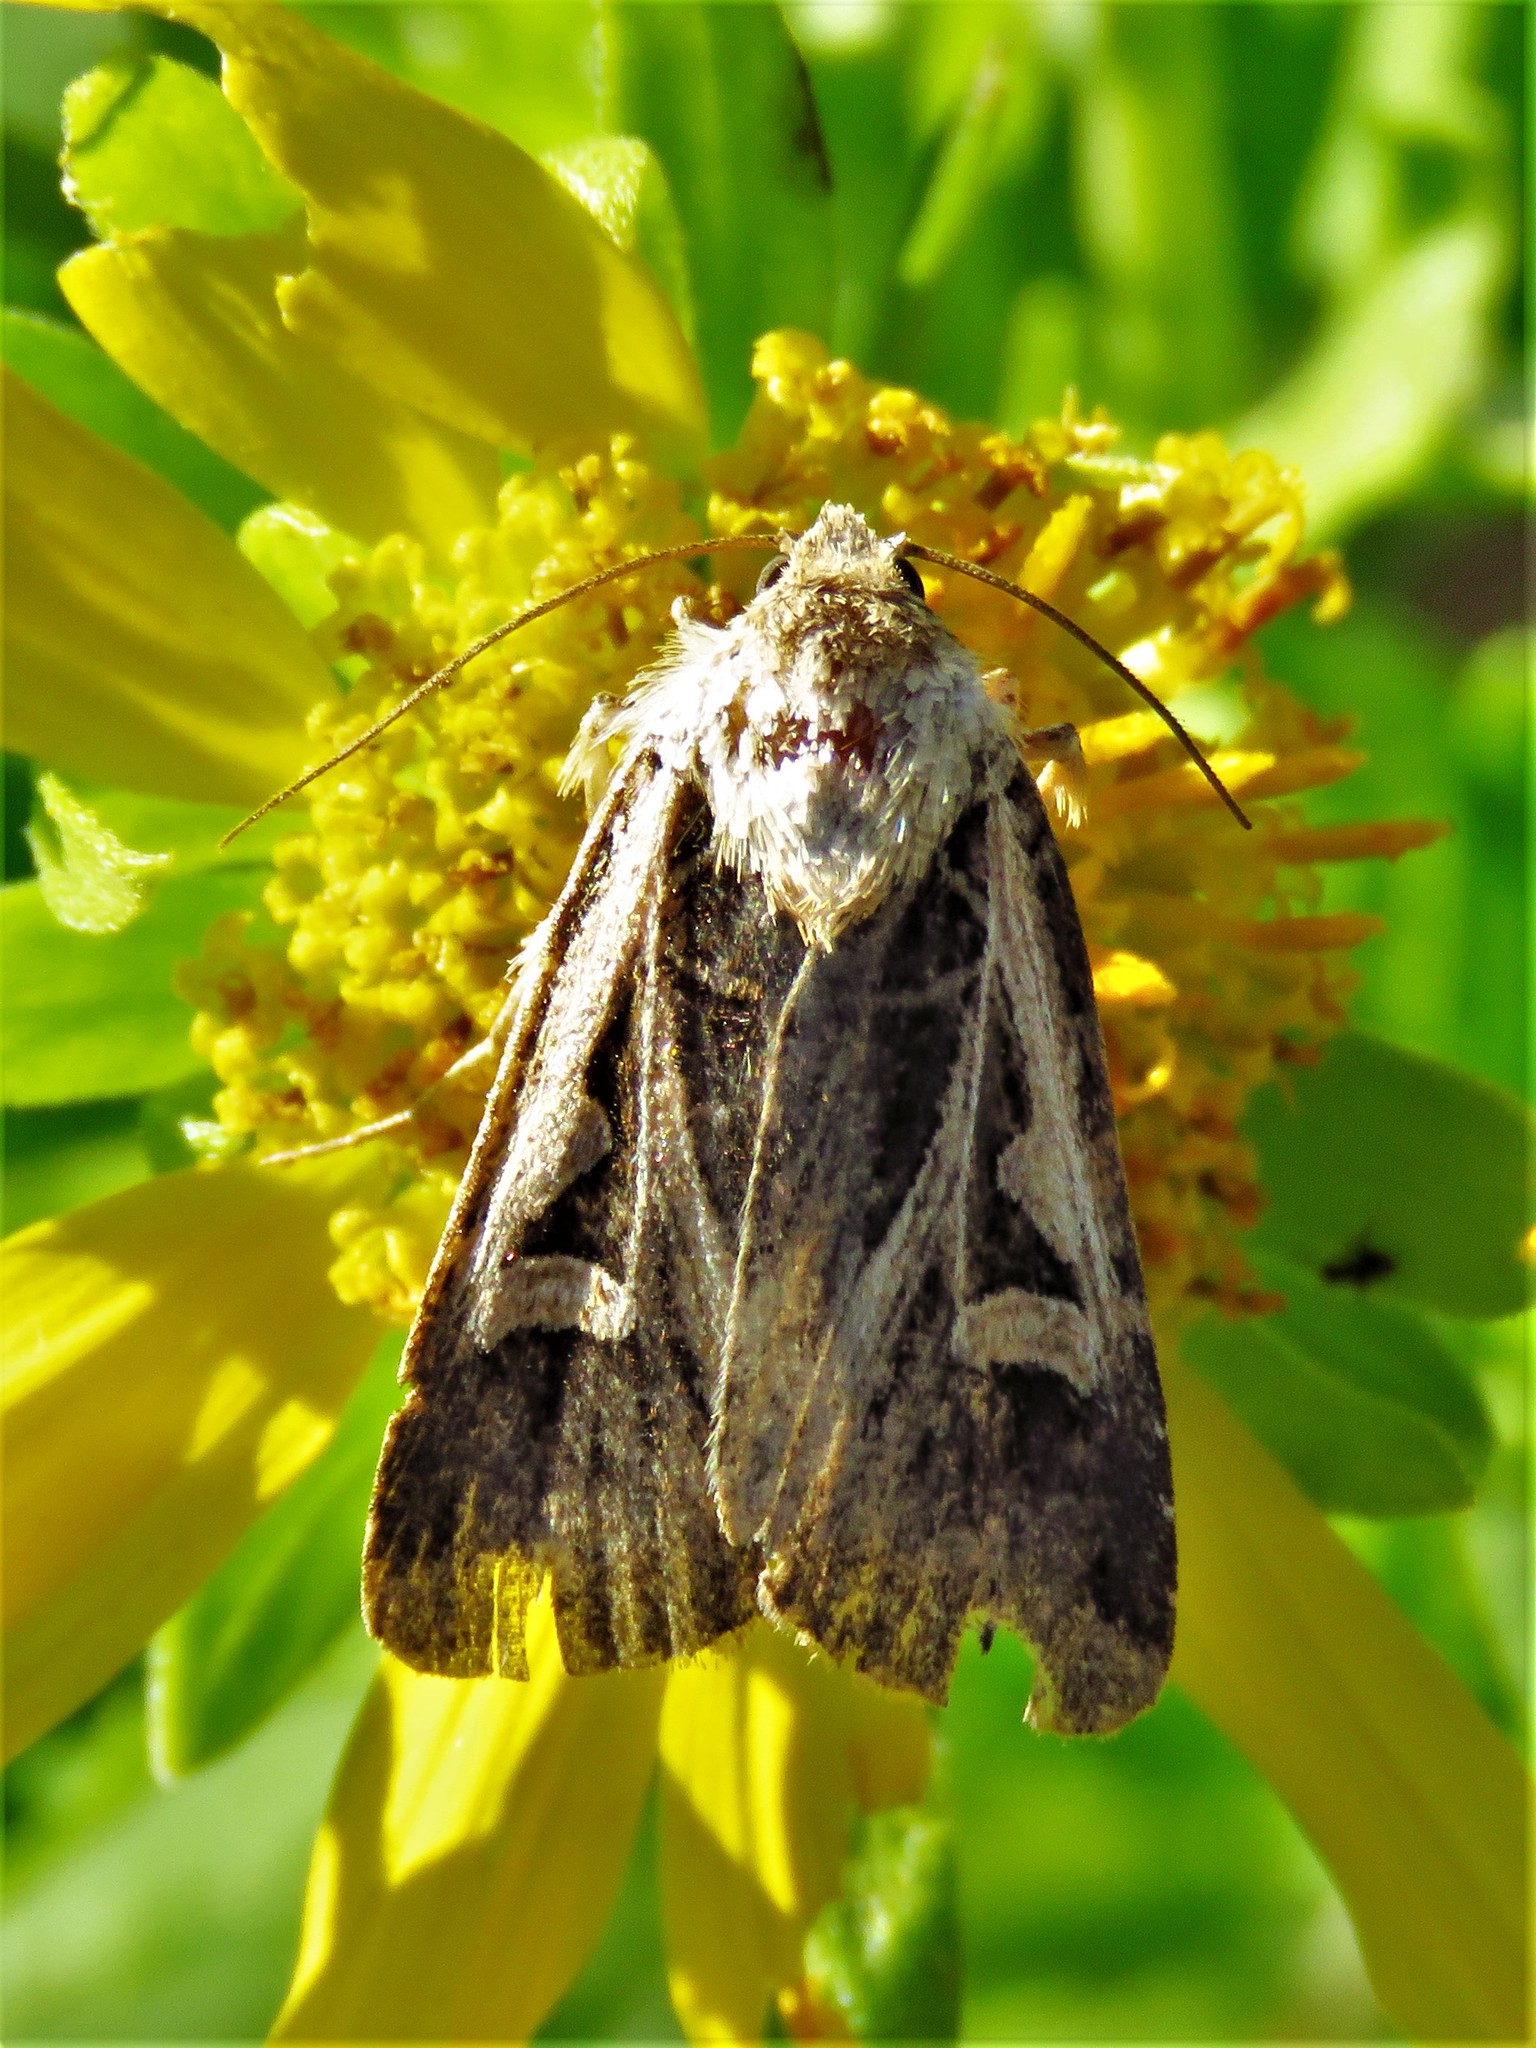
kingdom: Animalia
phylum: Arthropoda
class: Insecta
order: Lepidoptera
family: Noctuidae
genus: Feltia
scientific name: Feltia jaculifera
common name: Dingy cutworm moth
